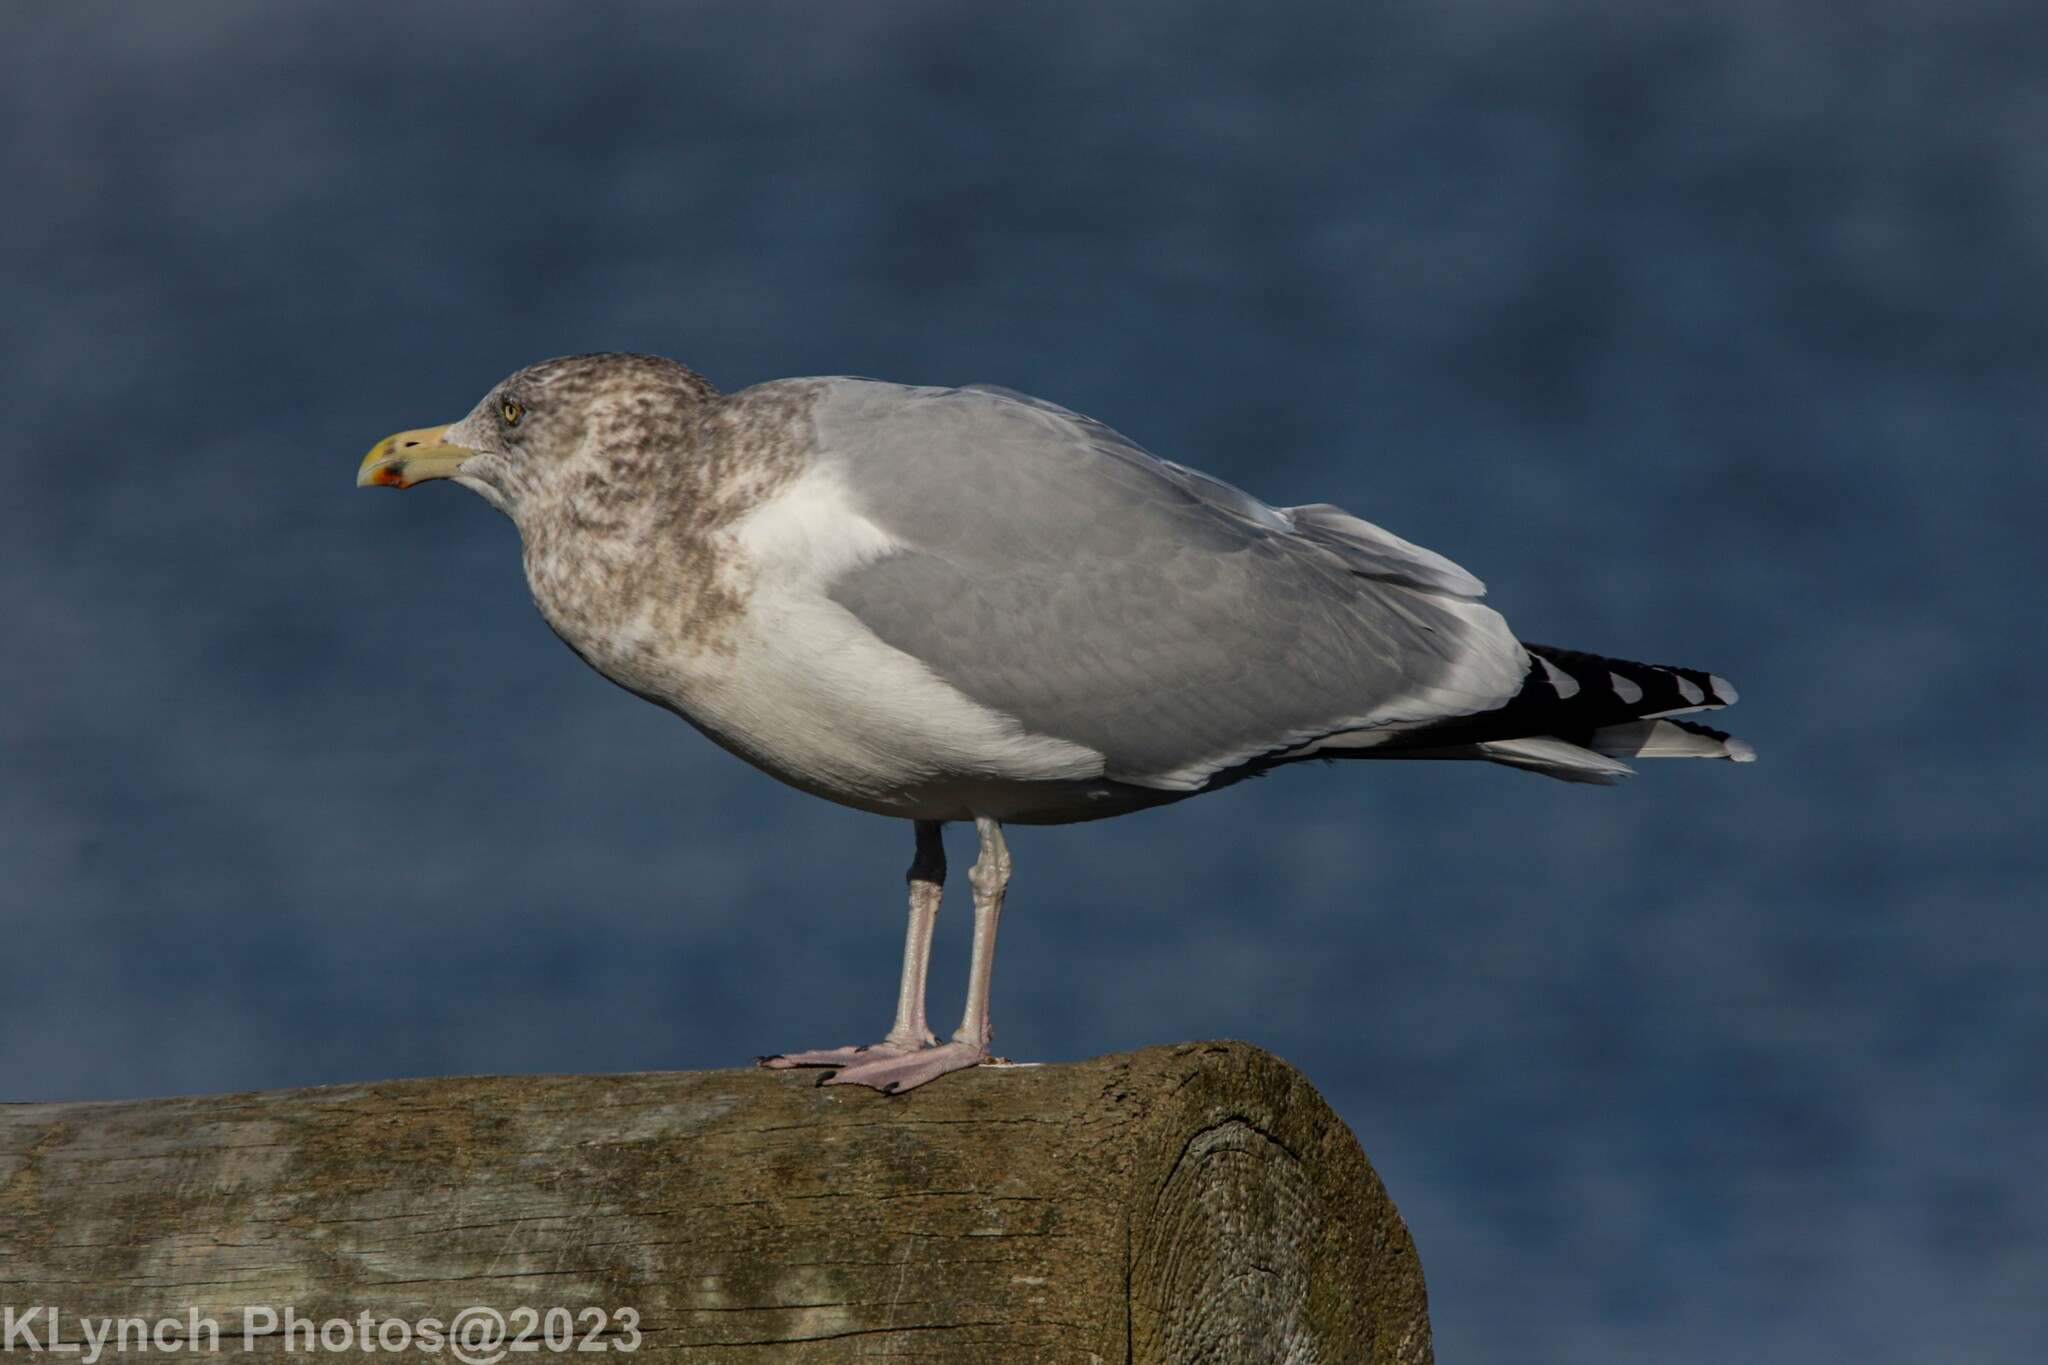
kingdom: Animalia
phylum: Chordata
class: Aves
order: Charadriiformes
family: Laridae
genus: Larus
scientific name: Larus argentatus
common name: Herring gull
